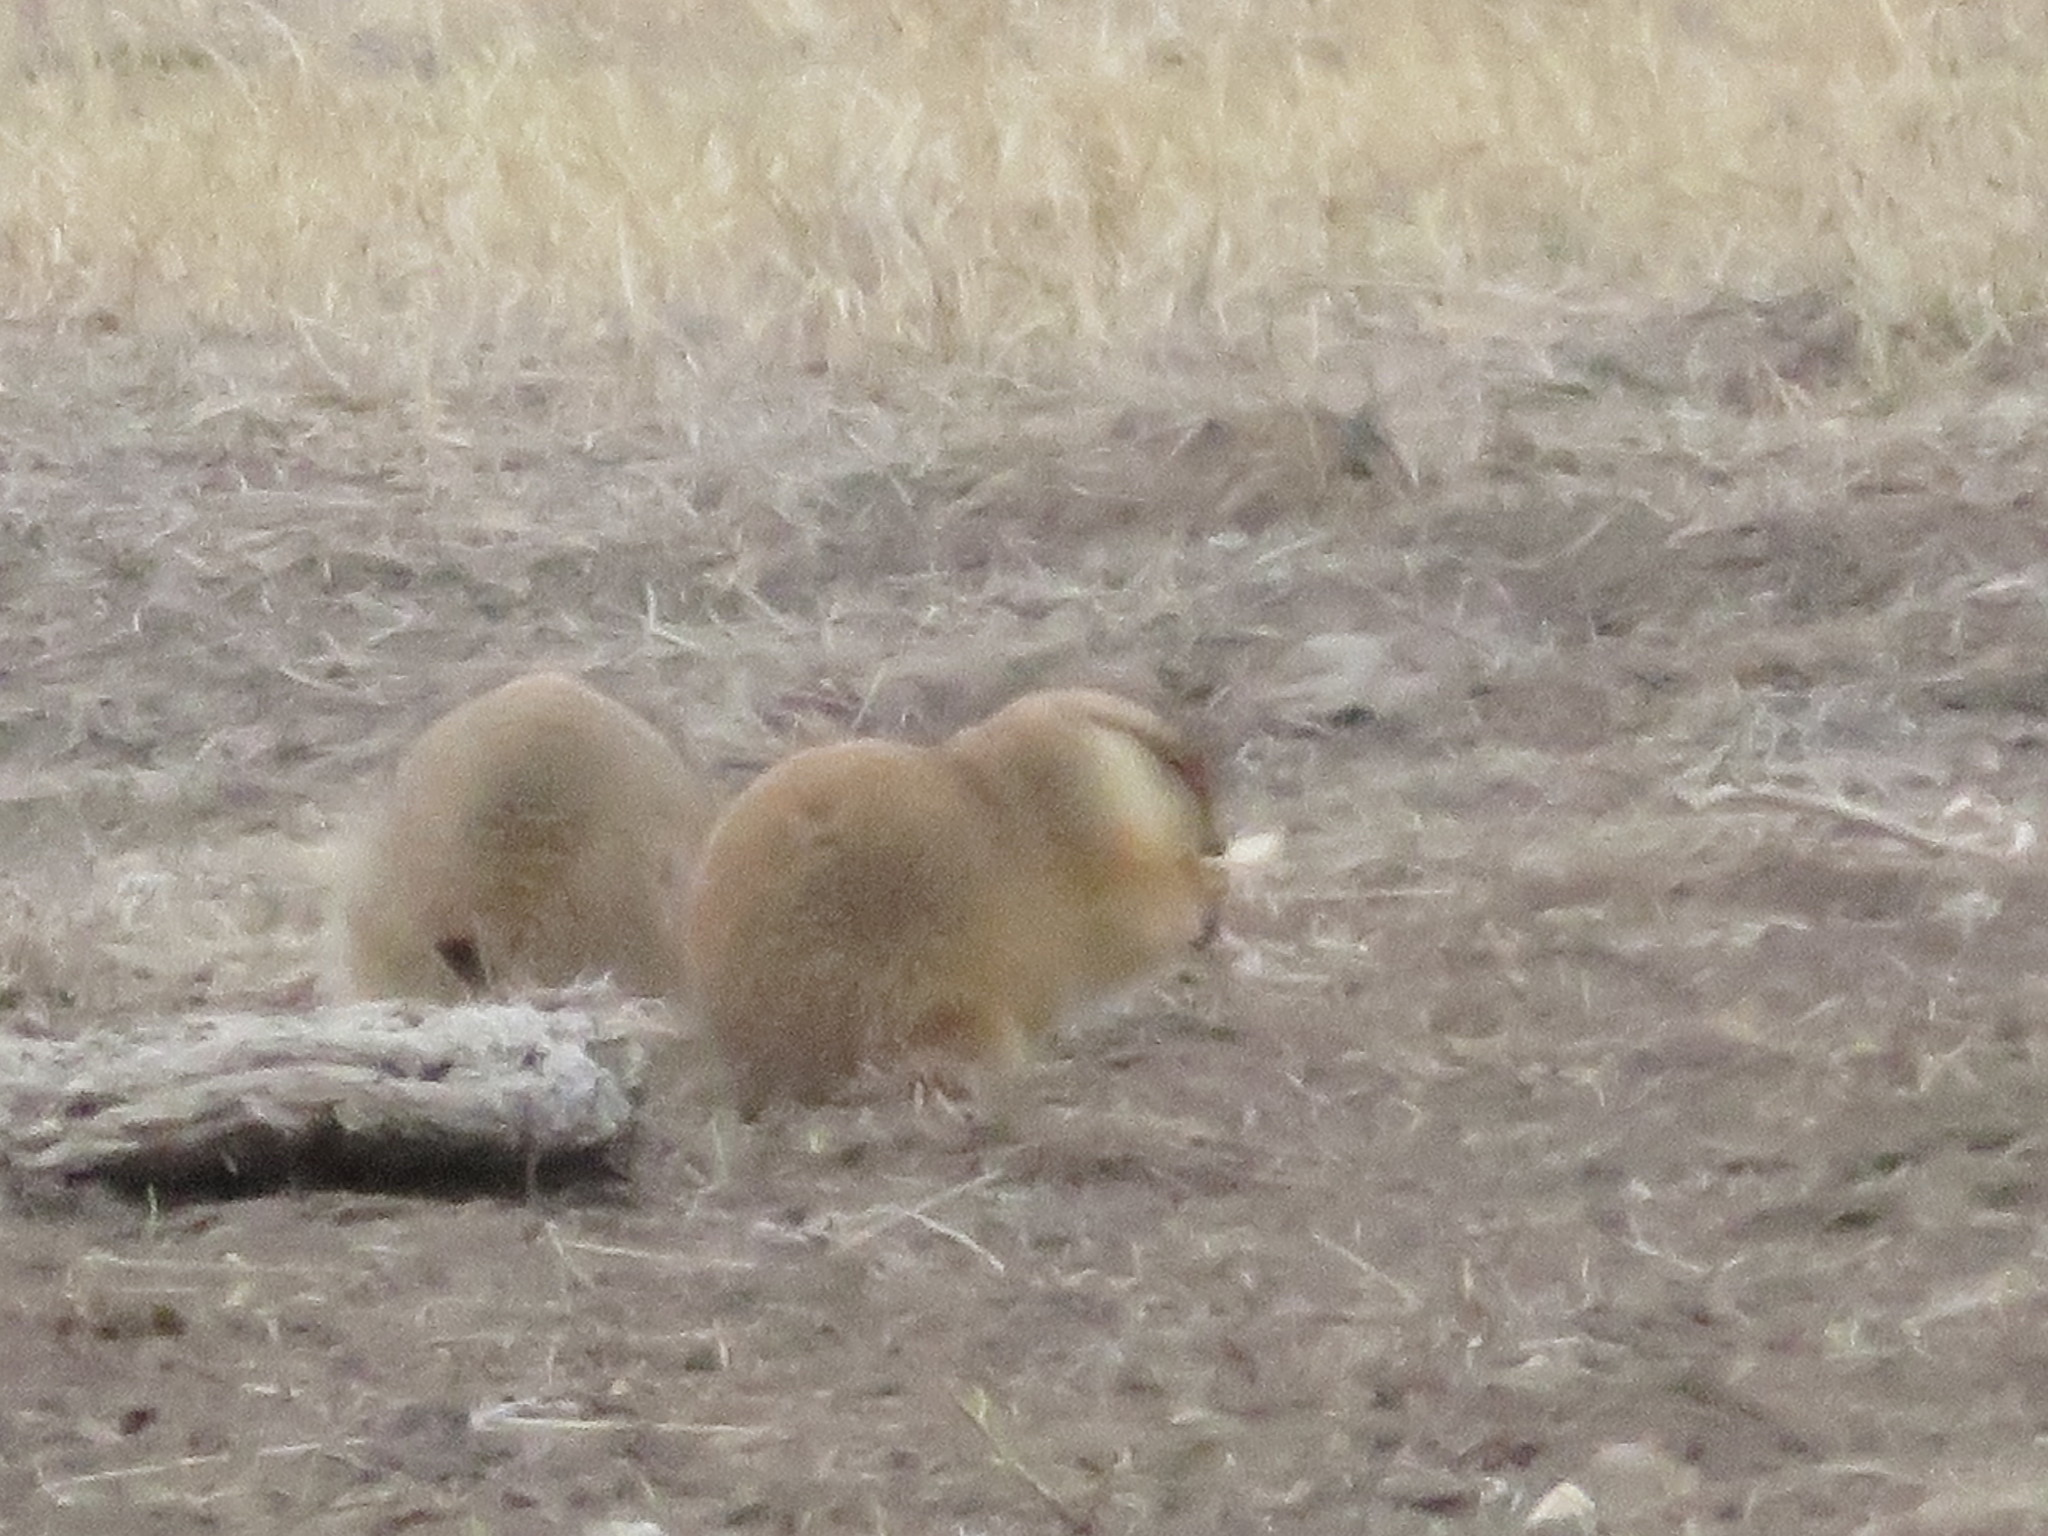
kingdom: Animalia
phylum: Chordata
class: Mammalia
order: Rodentia
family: Sciuridae
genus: Cynomys
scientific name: Cynomys ludovicianus
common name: Black-tailed prairie dog
